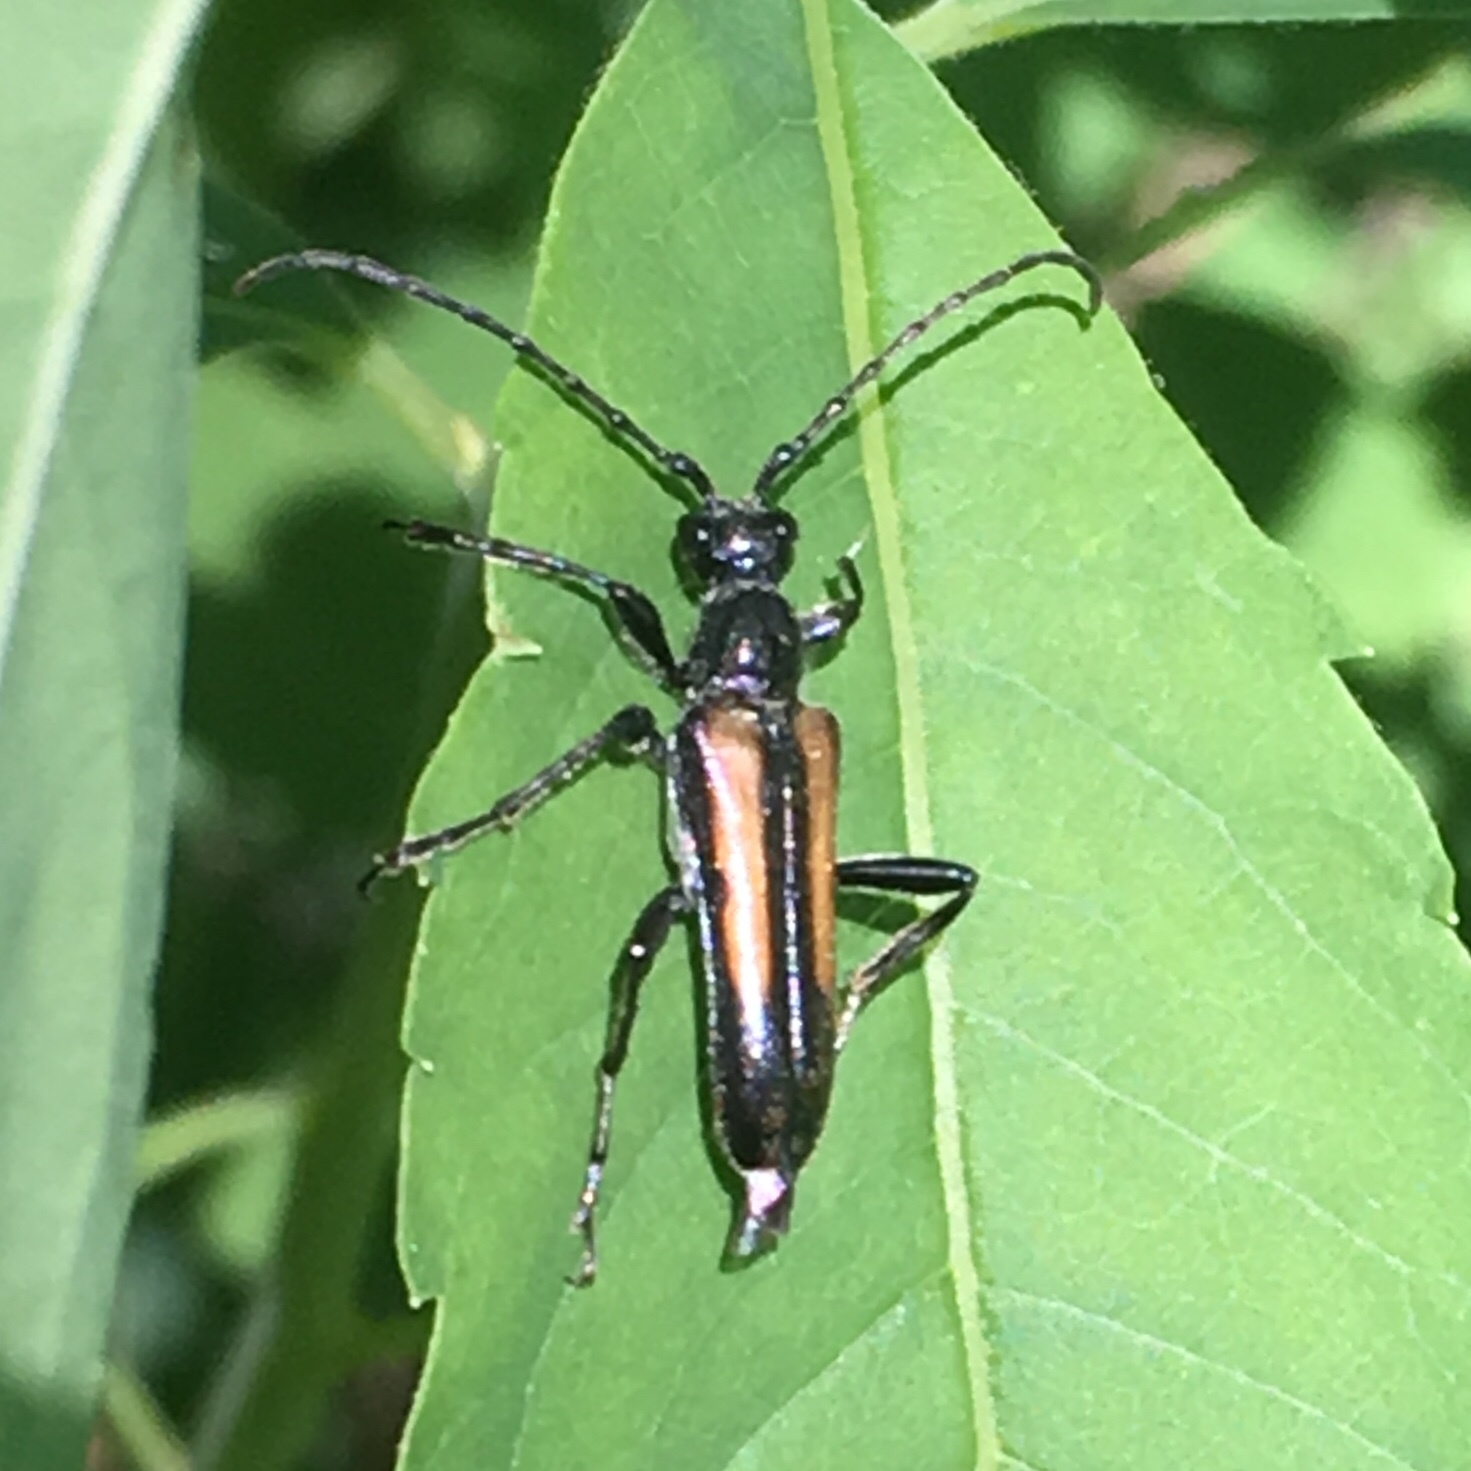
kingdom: Animalia
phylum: Arthropoda
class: Insecta
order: Coleoptera
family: Cerambycidae
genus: Strangalepta
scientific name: Strangalepta abbreviata
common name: Strangalepta flower longhorn beetle
